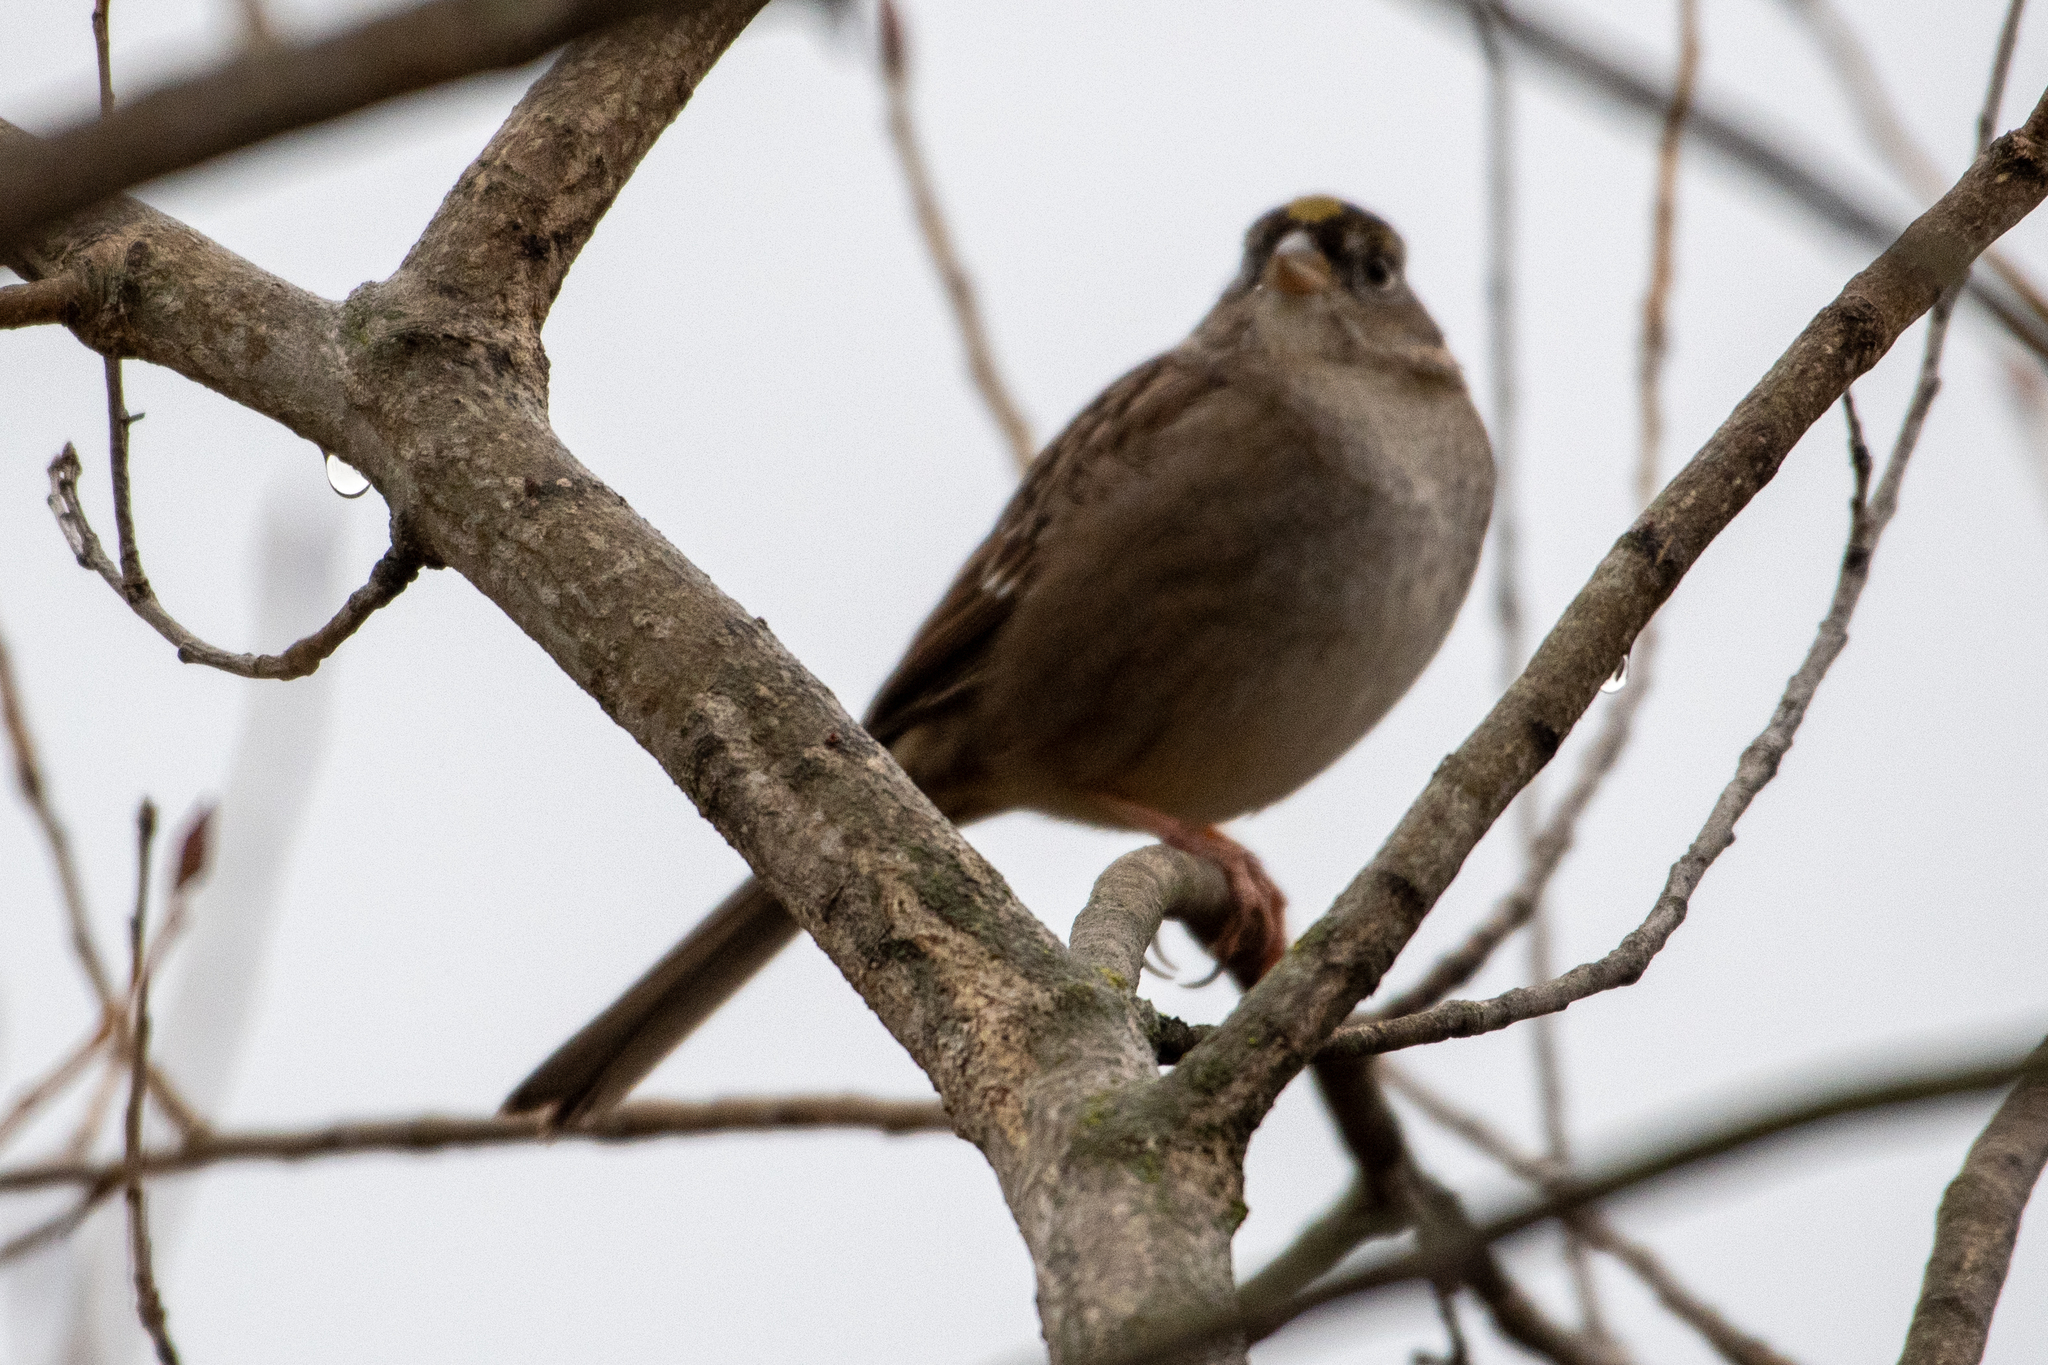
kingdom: Animalia
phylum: Chordata
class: Aves
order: Passeriformes
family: Passerellidae
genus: Zonotrichia
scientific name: Zonotrichia atricapilla
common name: Golden-crowned sparrow
